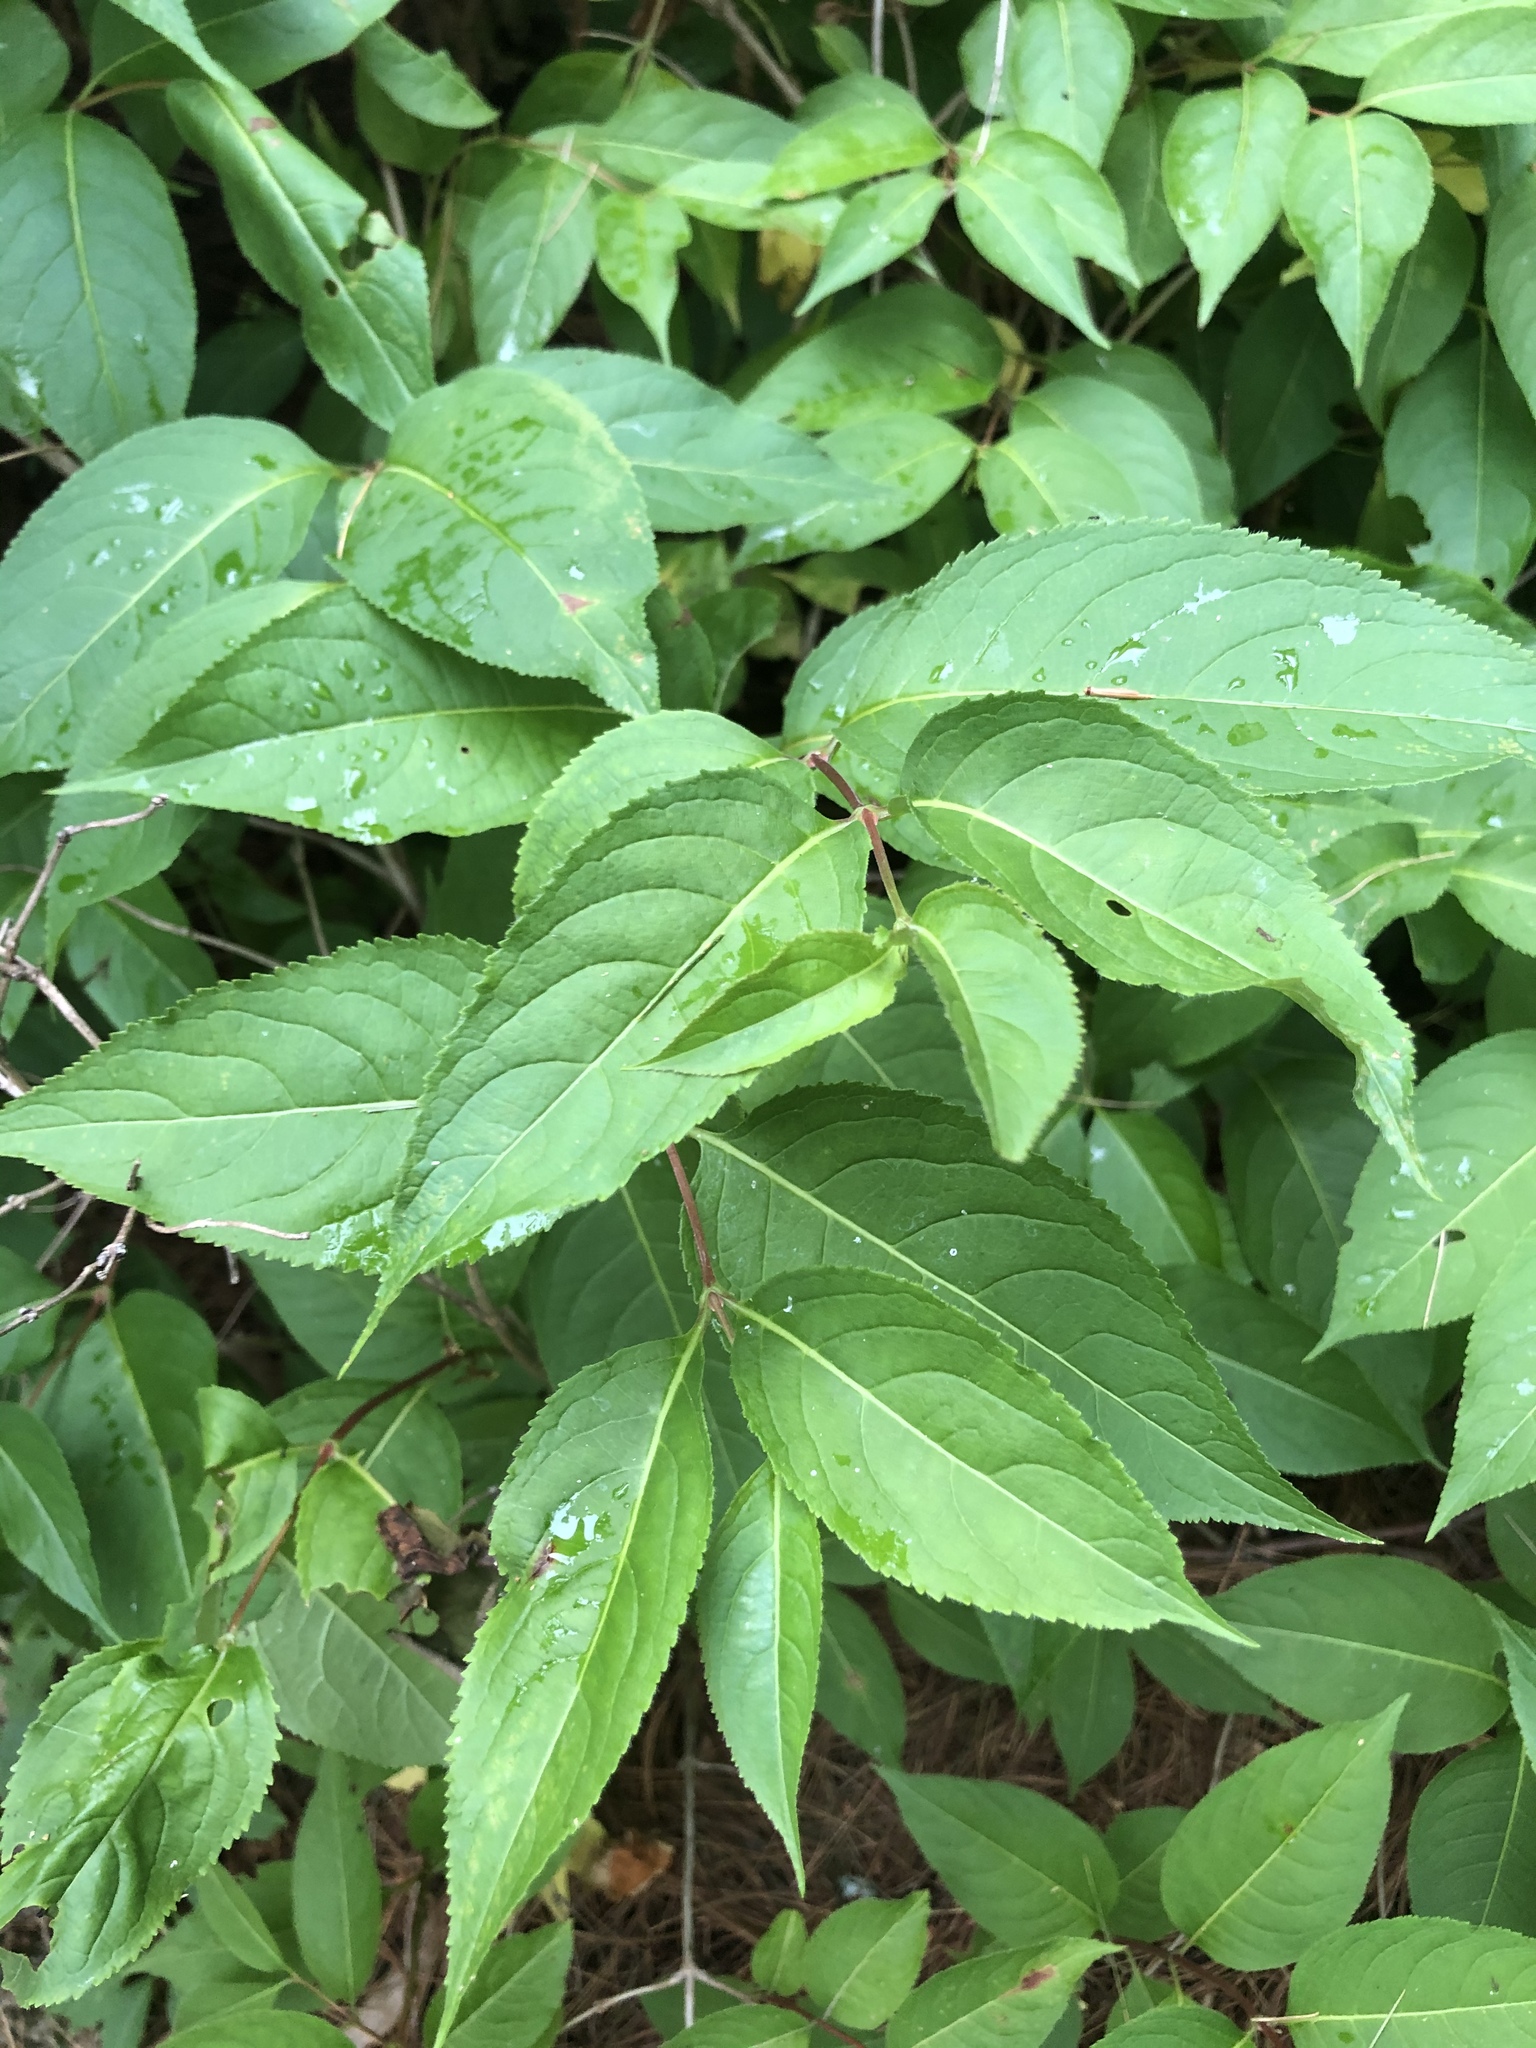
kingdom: Plantae
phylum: Tracheophyta
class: Magnoliopsida
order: Dipsacales
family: Caprifoliaceae
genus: Diervilla
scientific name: Diervilla lonicera
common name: Bush-honeysuckle
